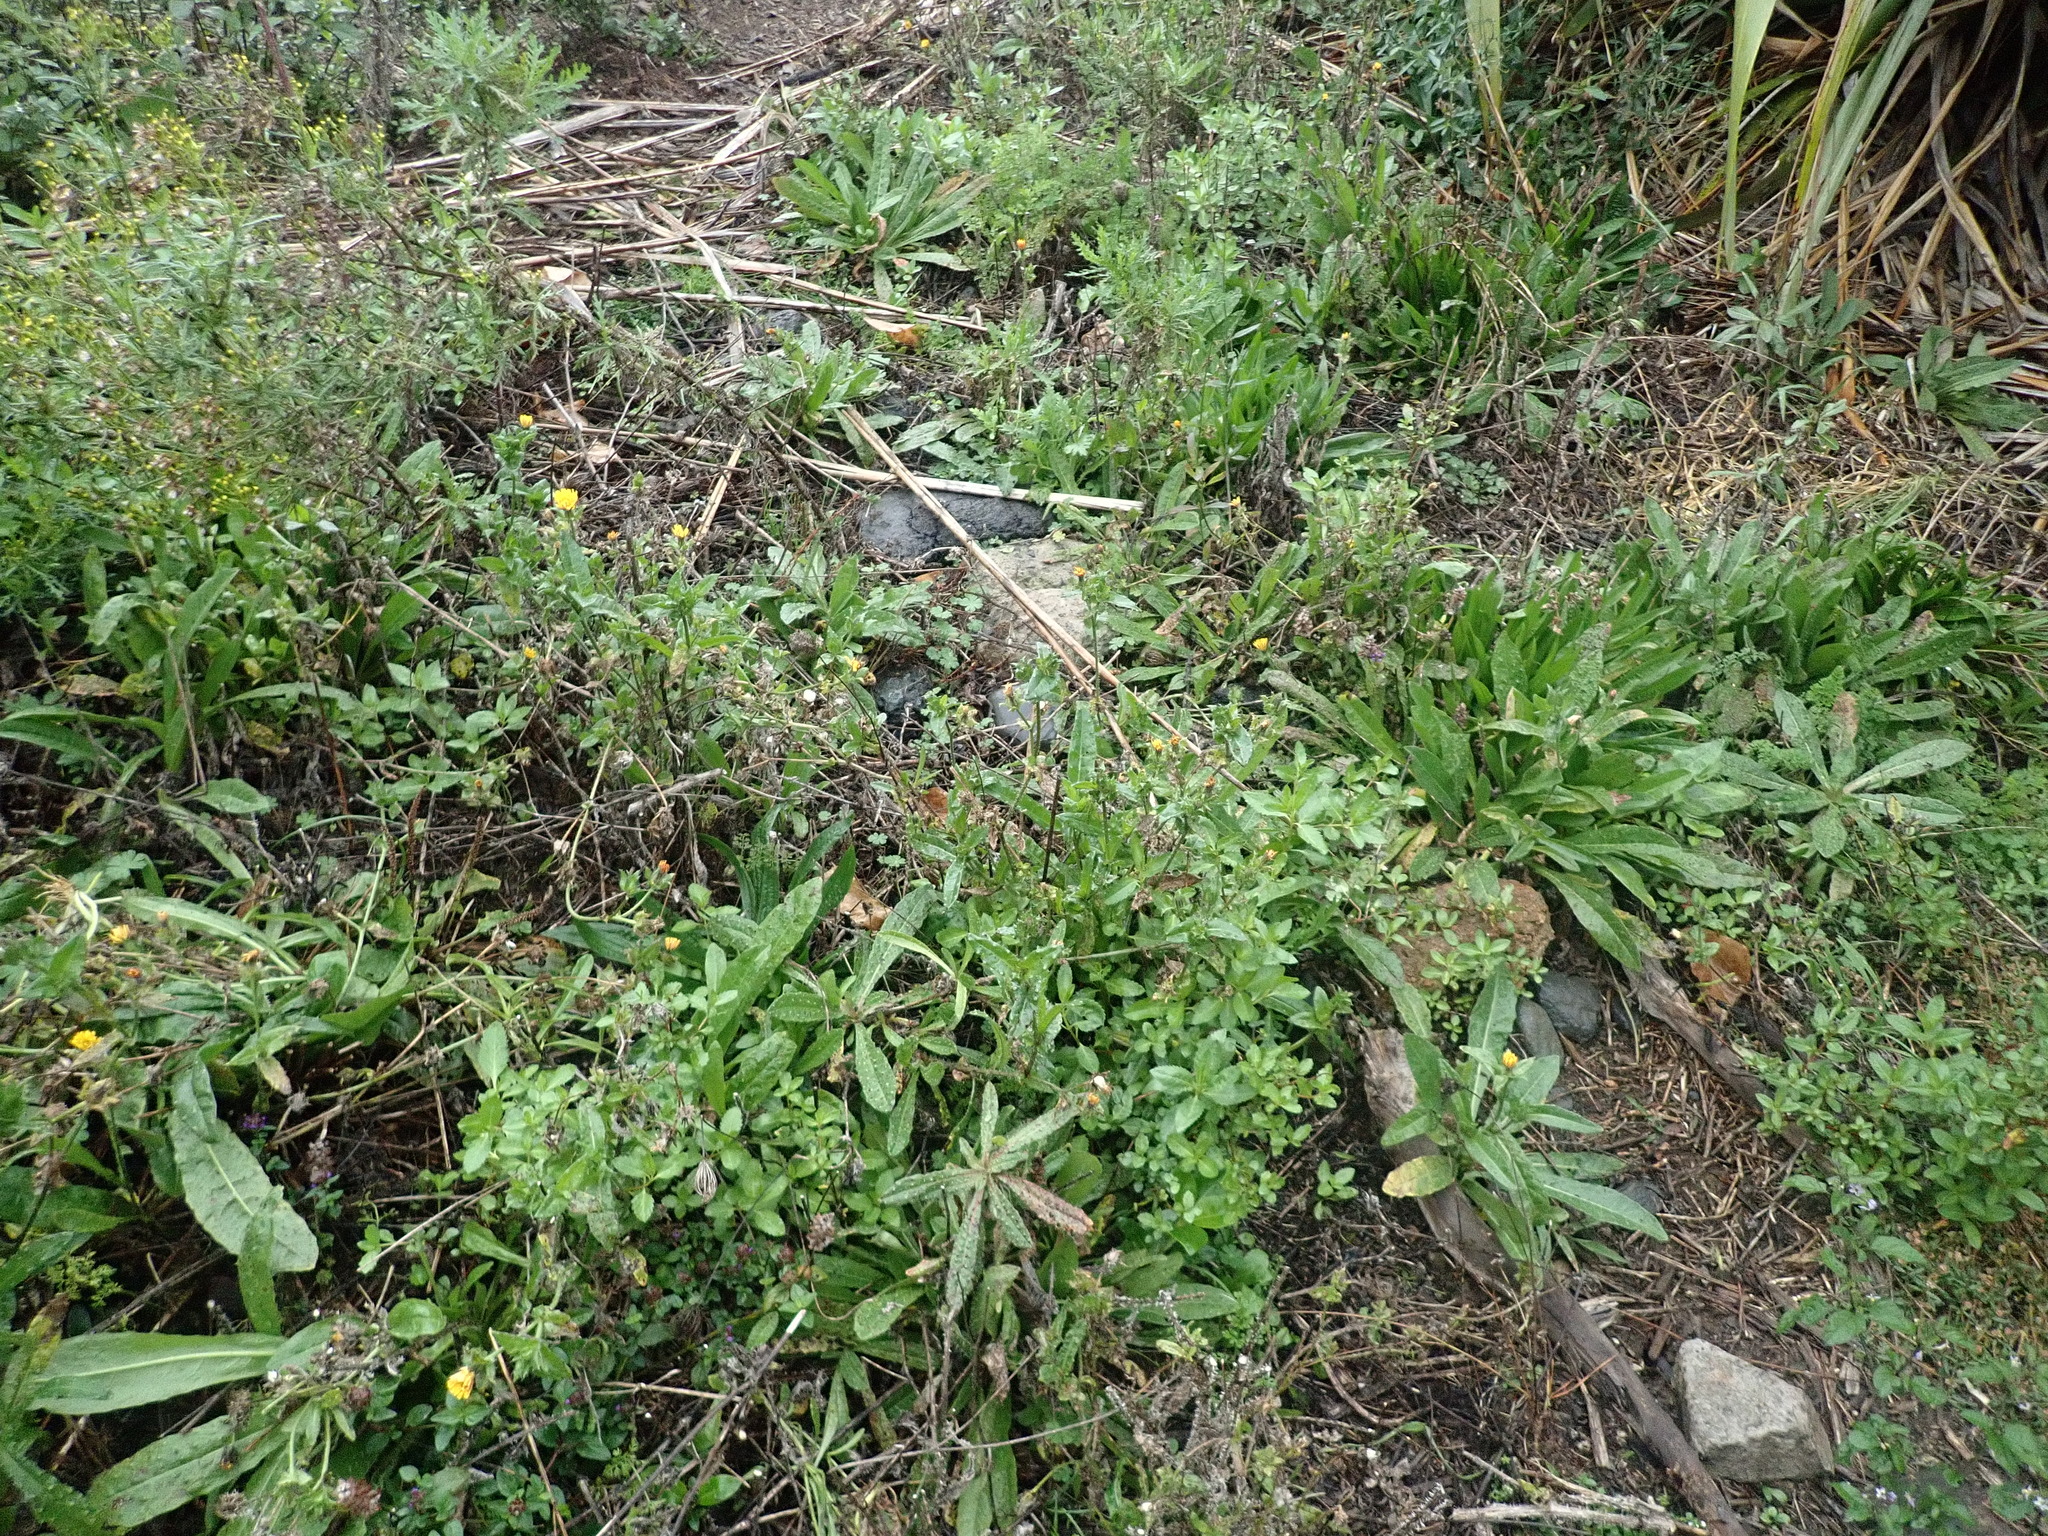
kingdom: Plantae
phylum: Tracheophyta
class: Magnoliopsida
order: Asterales
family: Asteraceae
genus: Helminthotheca
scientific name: Helminthotheca echioides
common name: Ox-tongue
